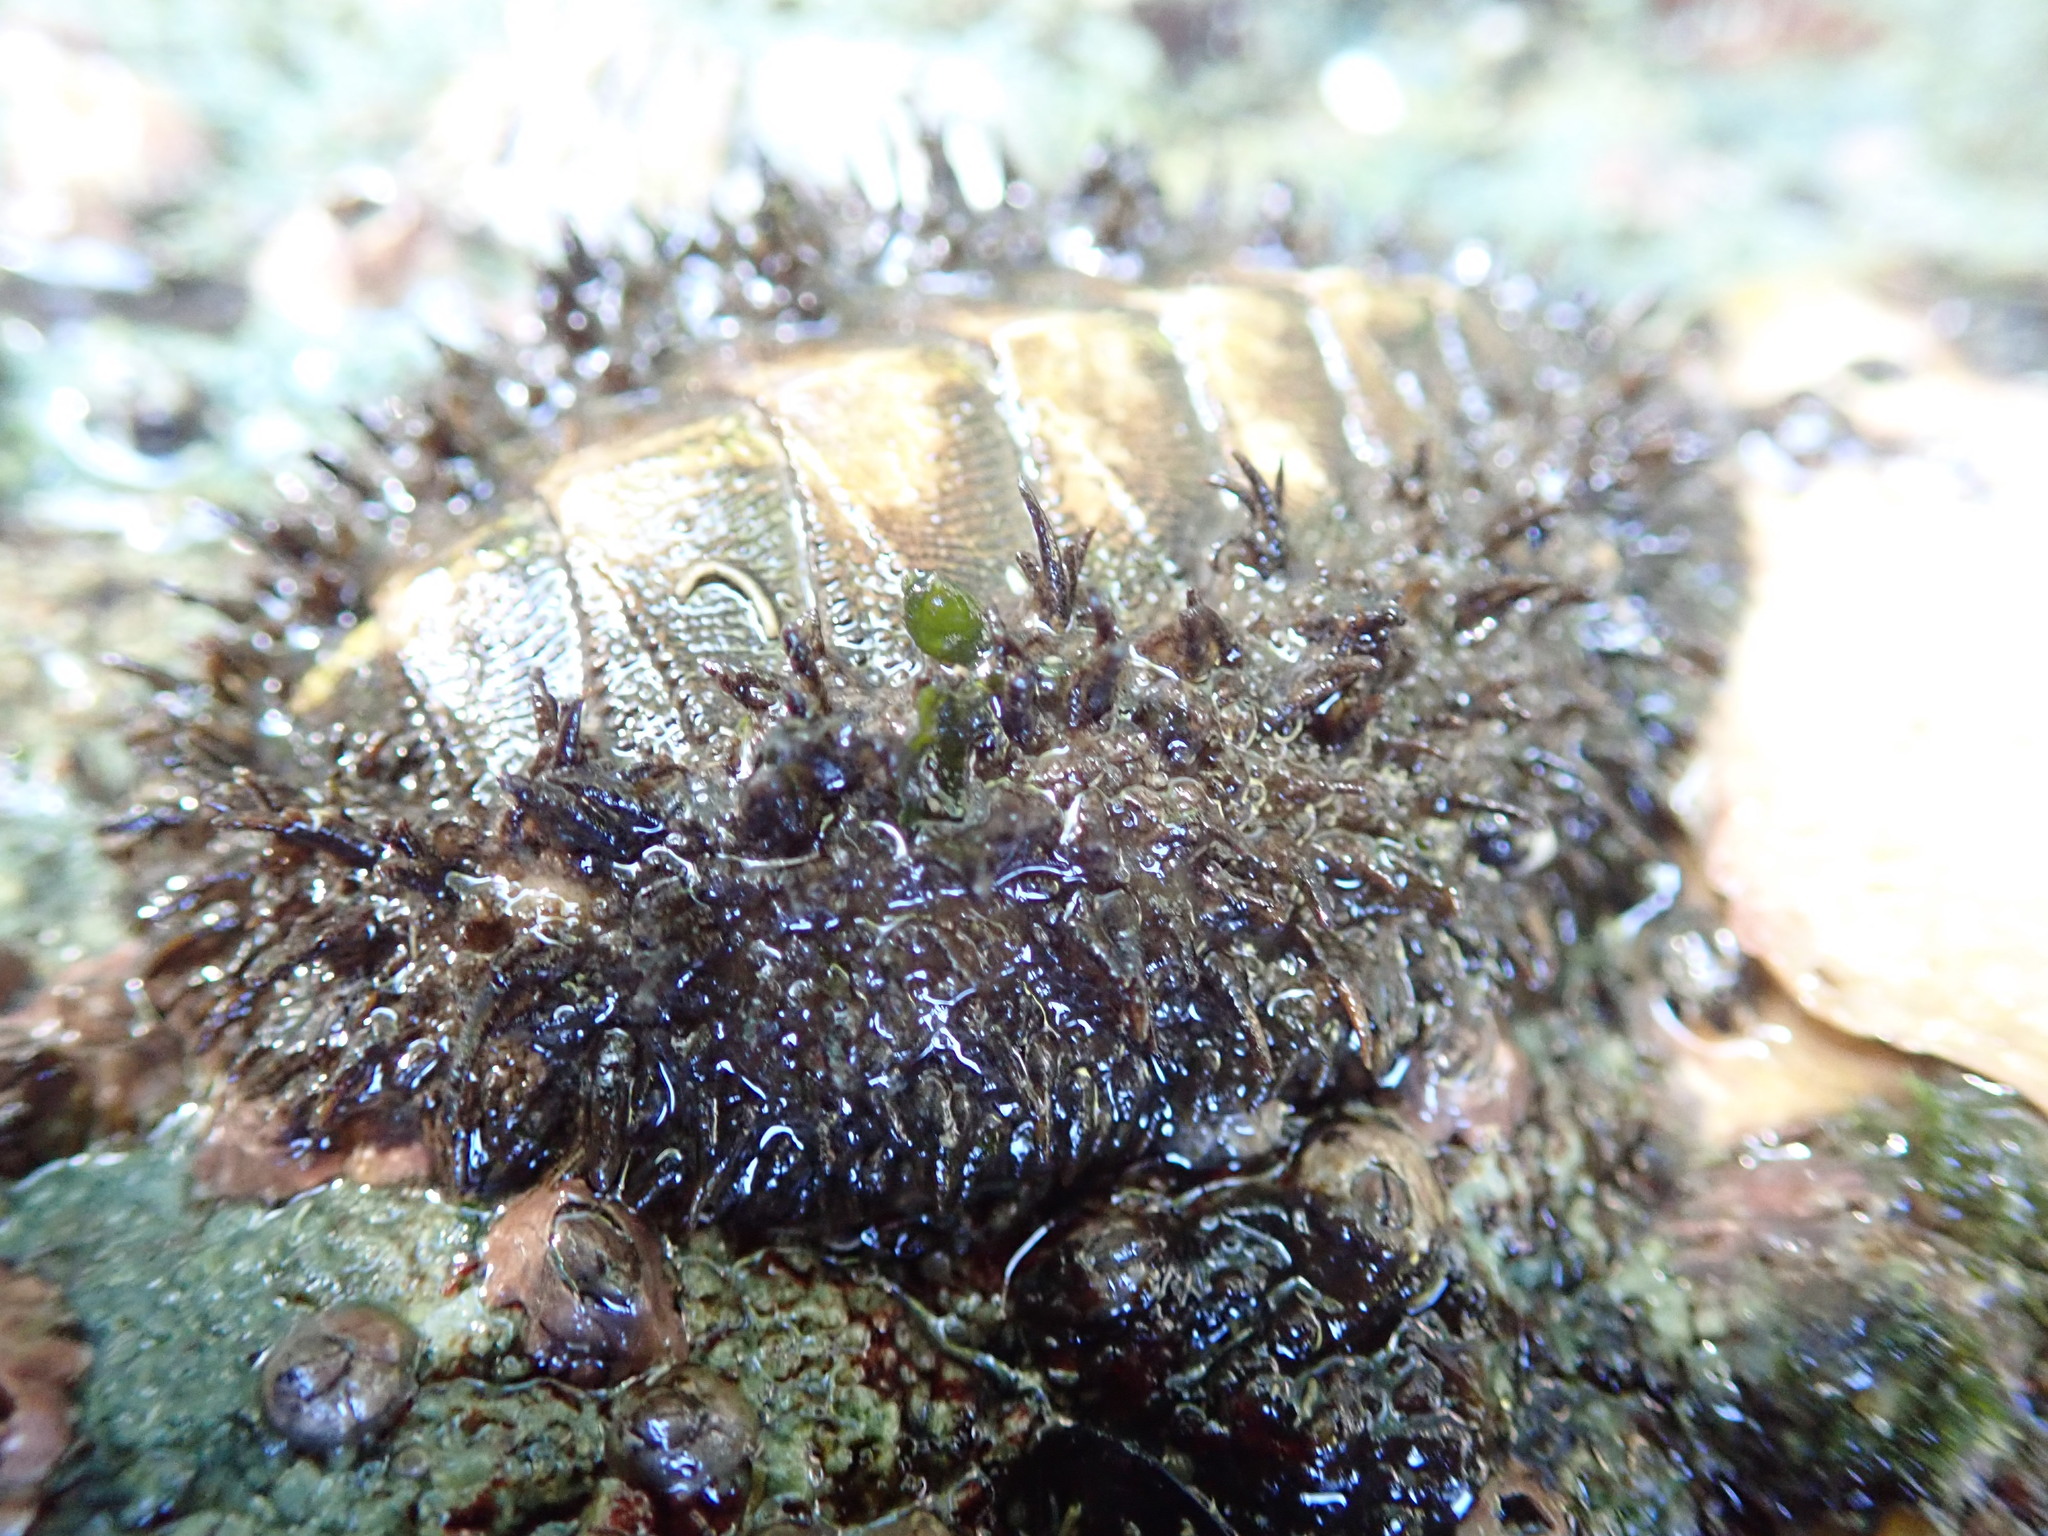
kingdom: Animalia
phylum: Mollusca
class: Polyplacophora
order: Chitonida
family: Mopaliidae
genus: Mopalia
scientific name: Mopalia muscosa
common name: Mossy chiton
